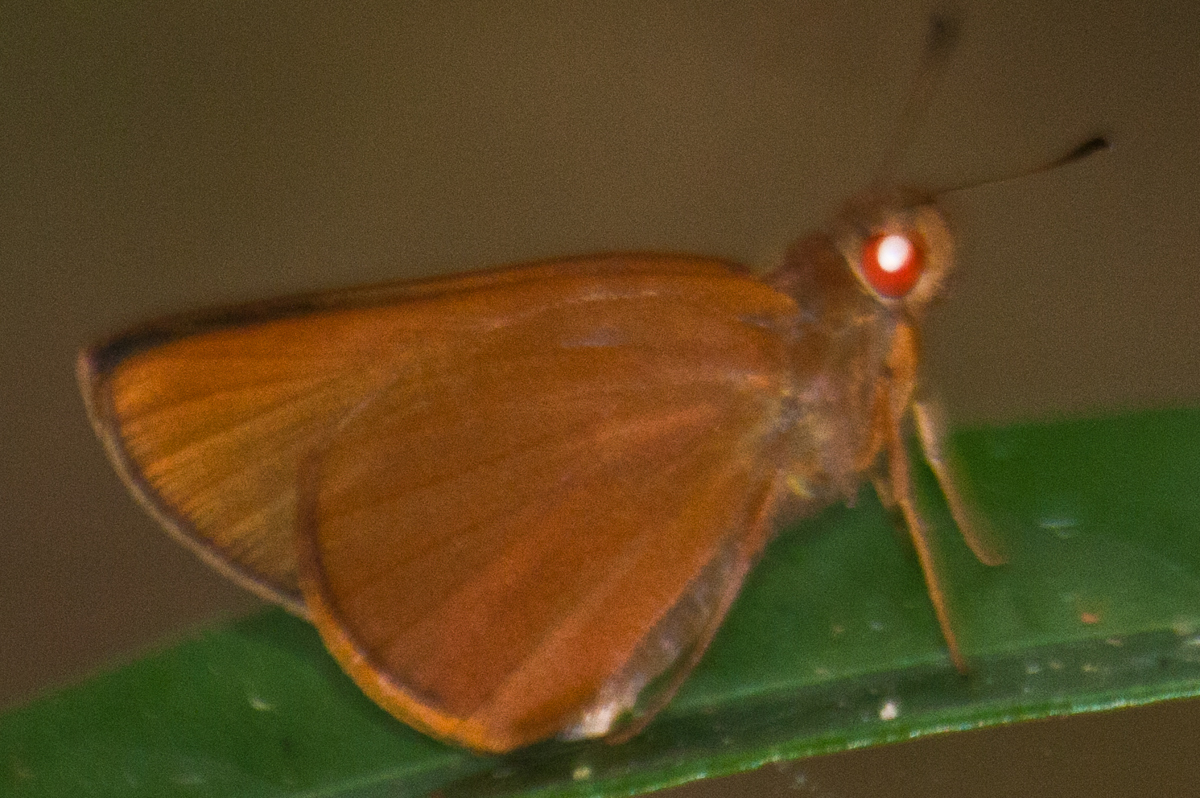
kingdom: Animalia
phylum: Arthropoda
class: Insecta
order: Lepidoptera
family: Hesperiidae
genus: Matapa
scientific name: Matapa druna
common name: Grey-brand redeye
